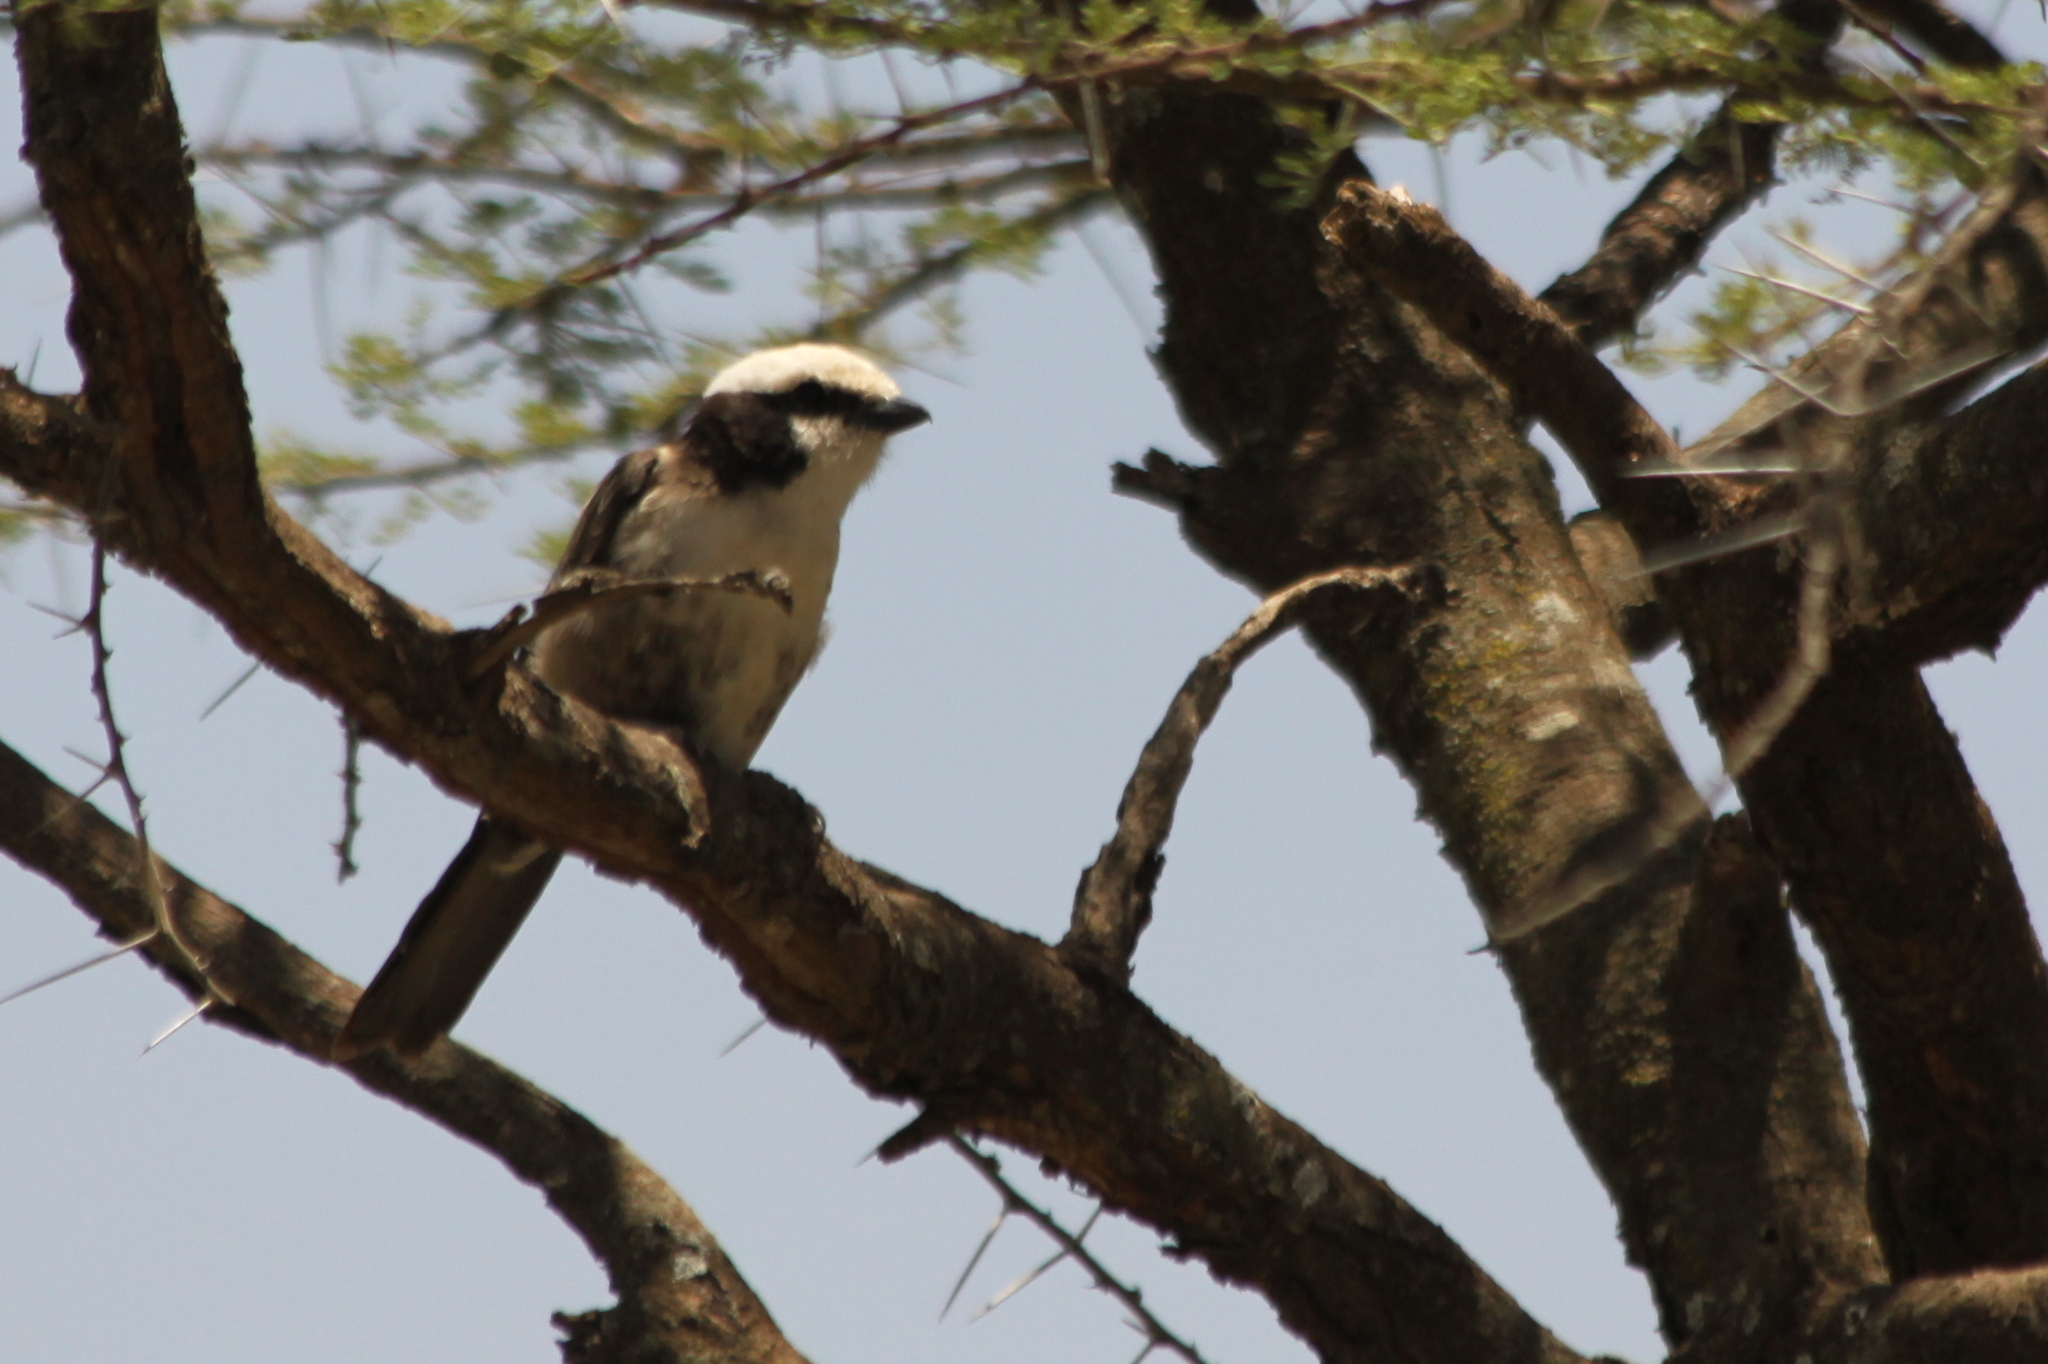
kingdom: Animalia
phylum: Chordata
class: Aves
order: Passeriformes
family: Laniidae
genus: Eurocephalus
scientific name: Eurocephalus ruppelli
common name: Northern white-crowned shrike
